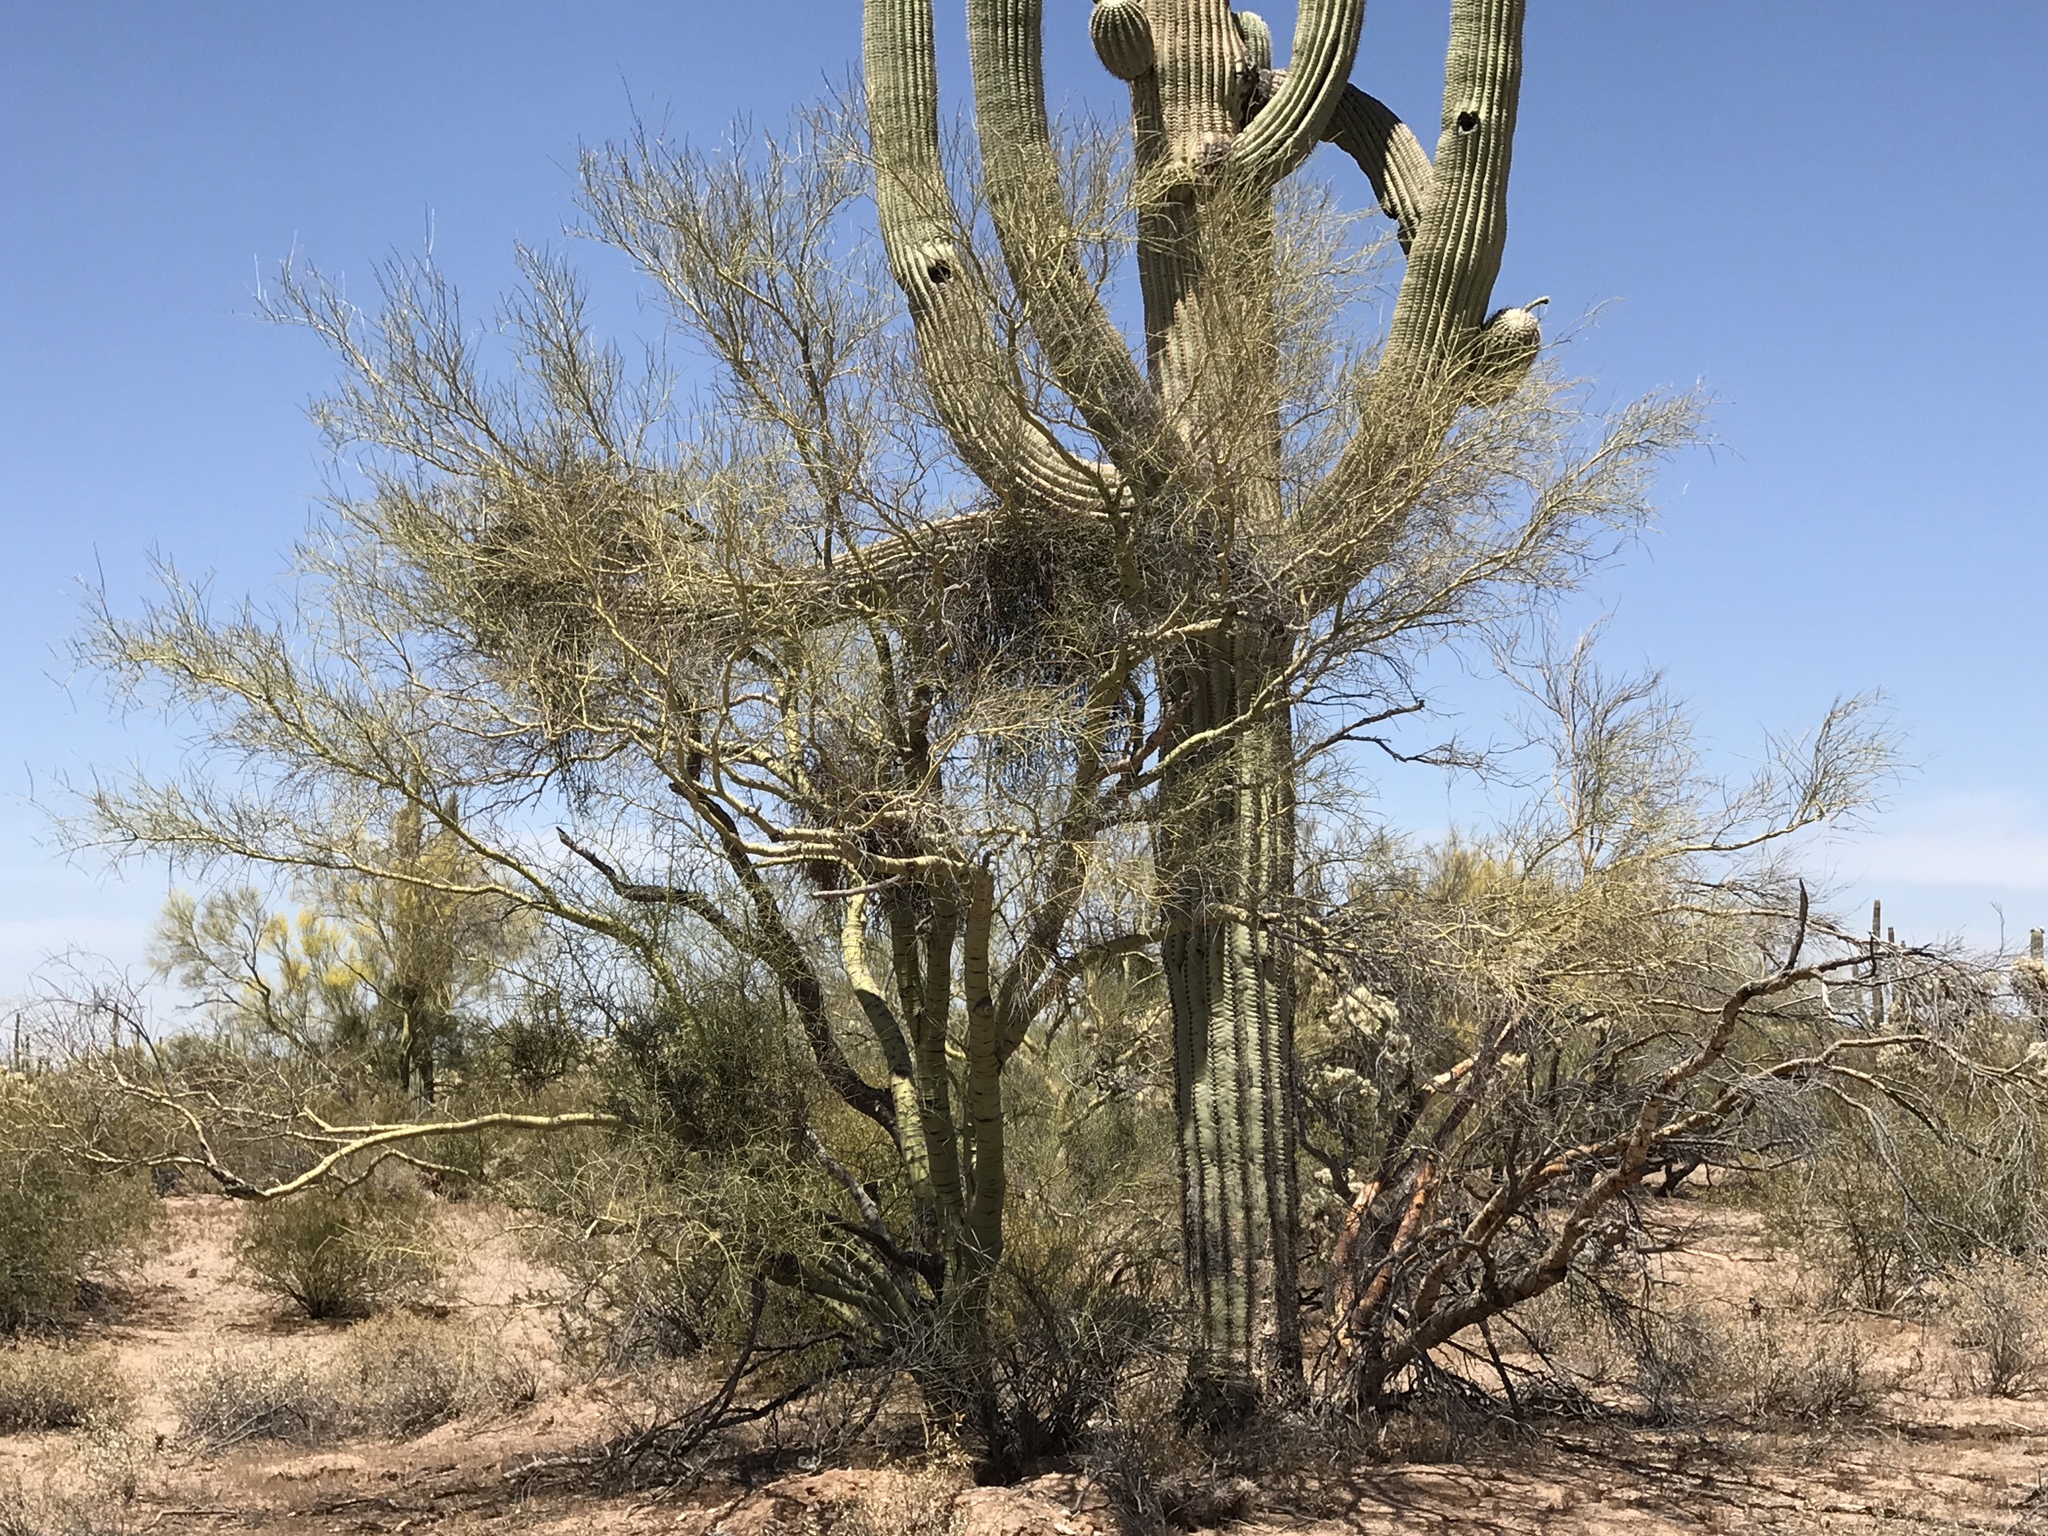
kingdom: Plantae
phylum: Tracheophyta
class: Magnoliopsida
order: Fabales
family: Fabaceae
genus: Parkinsonia
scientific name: Parkinsonia microphylla
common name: Yellow paloverde
